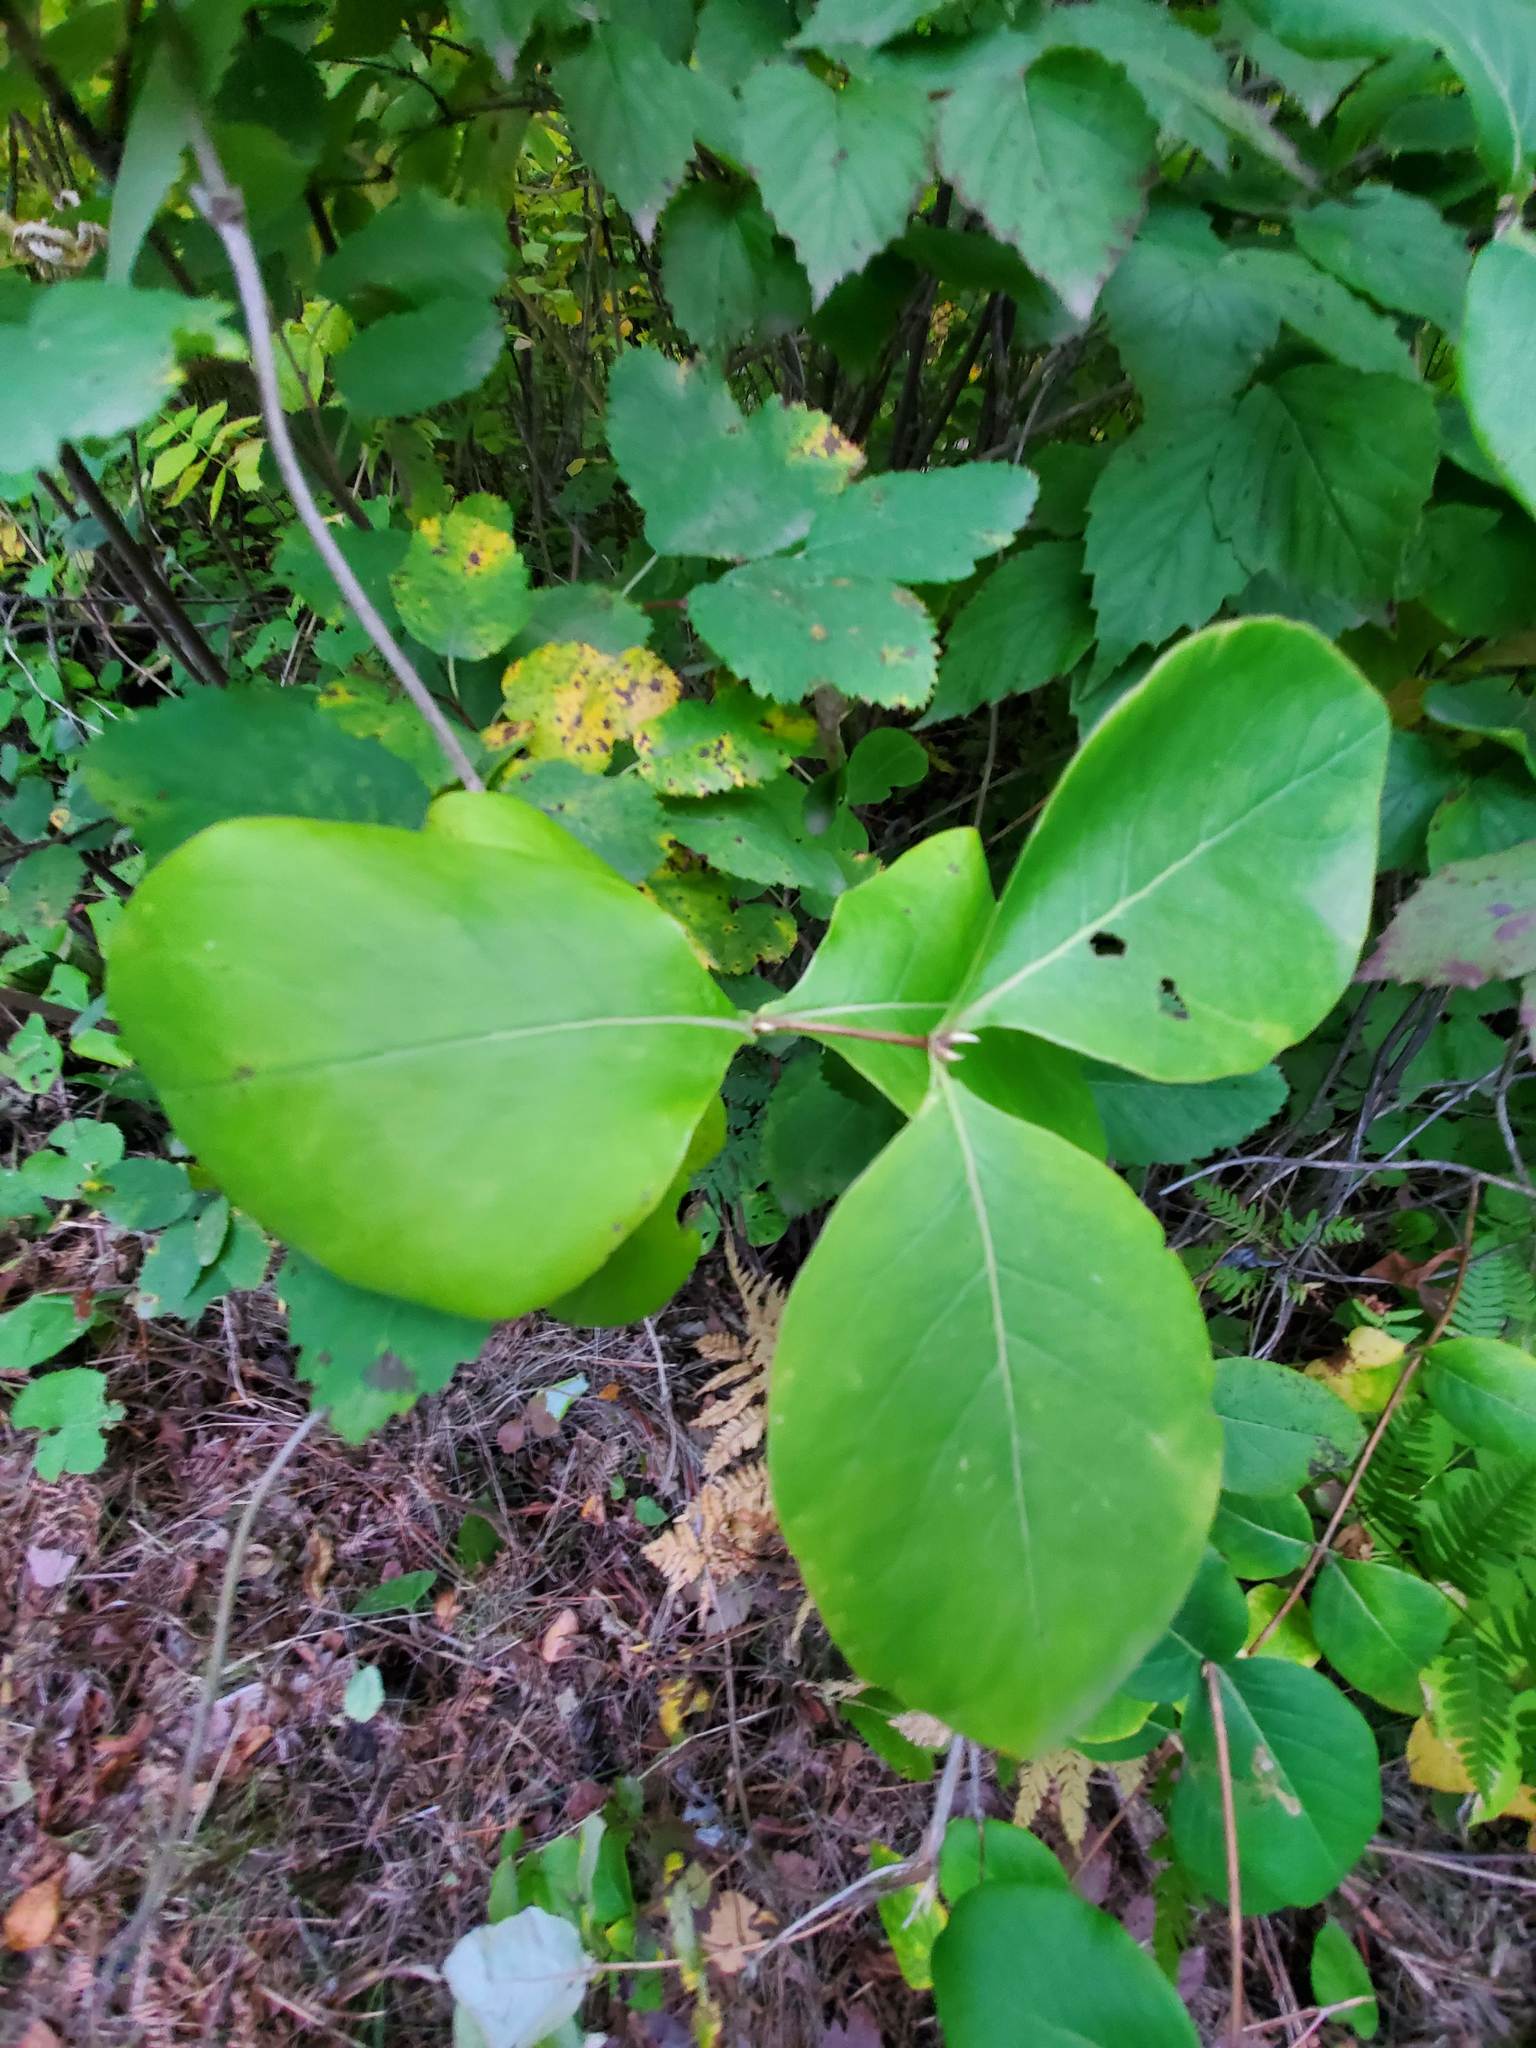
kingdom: Plantae
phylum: Tracheophyta
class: Magnoliopsida
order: Dipsacales
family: Caprifoliaceae
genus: Lonicera
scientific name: Lonicera dioica
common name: Limber honeysuckle
